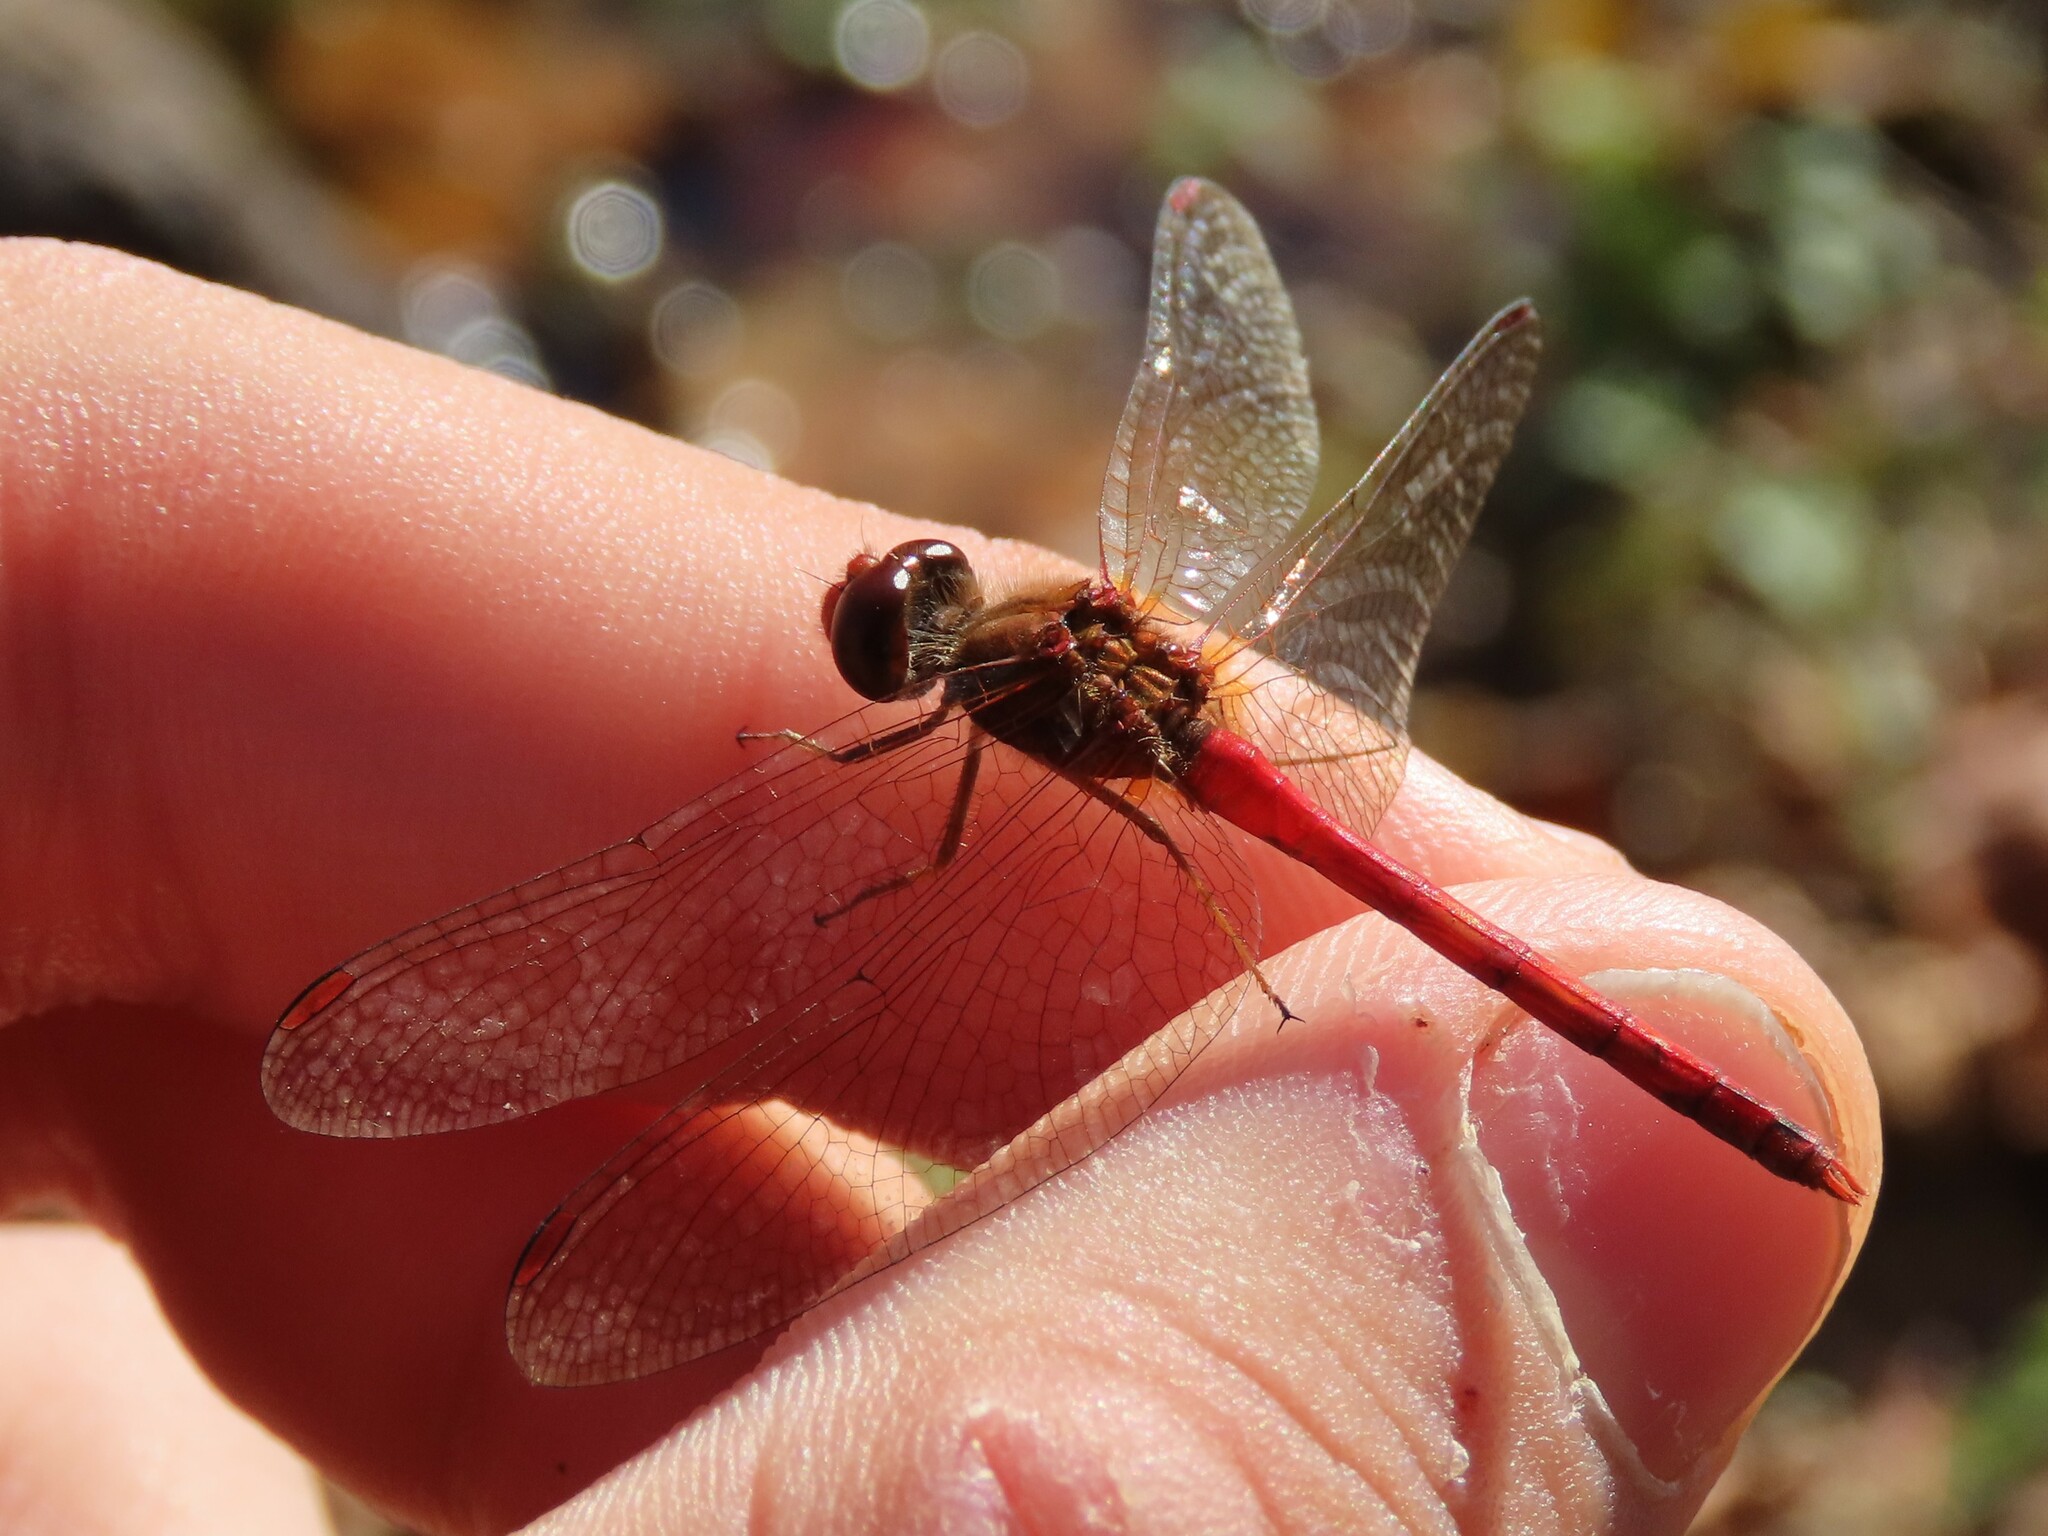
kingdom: Animalia
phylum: Arthropoda
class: Insecta
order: Odonata
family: Libellulidae
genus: Sympetrum
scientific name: Sympetrum vicinum
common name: Autumn meadowhawk
